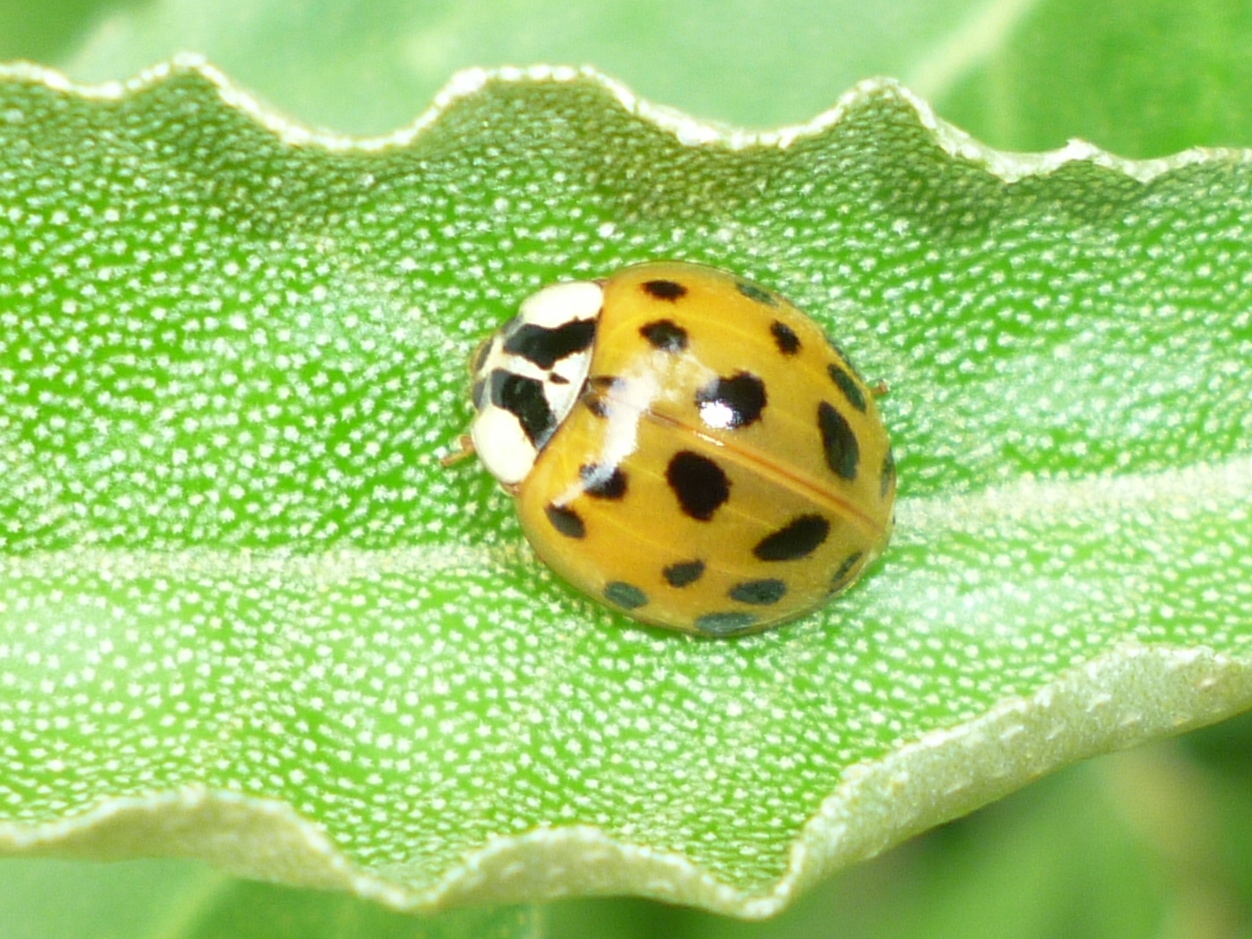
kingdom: Animalia
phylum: Arthropoda
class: Insecta
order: Coleoptera
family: Coccinellidae
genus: Harmonia
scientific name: Harmonia axyridis
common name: Harlequin ladybird
